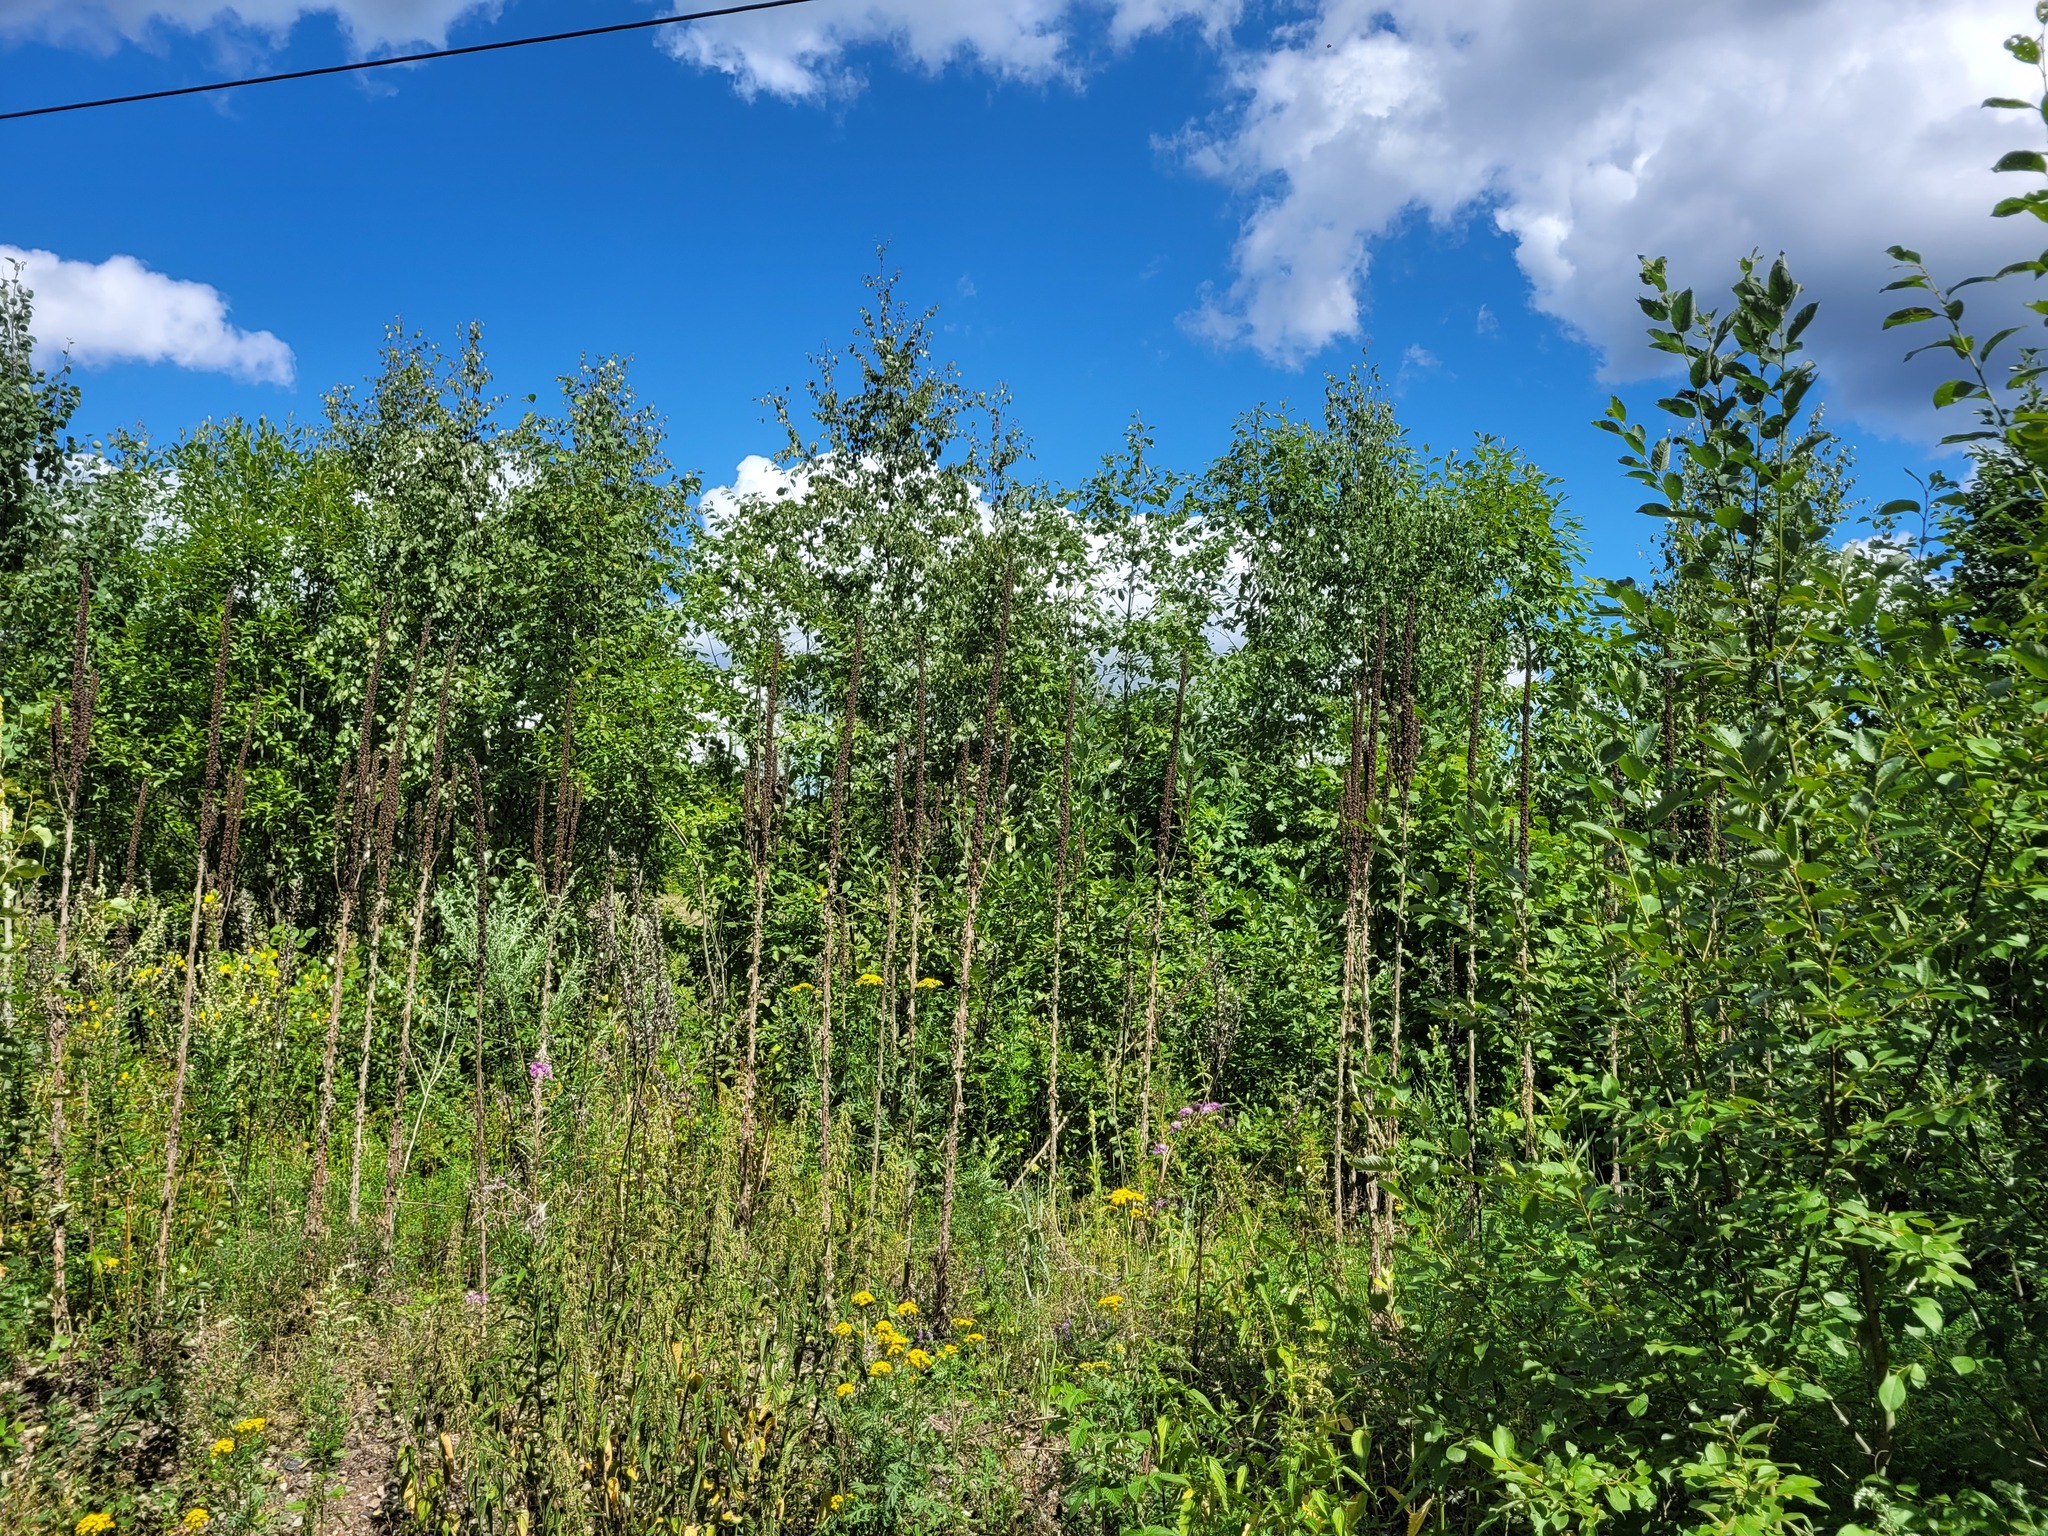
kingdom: Plantae
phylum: Tracheophyta
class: Magnoliopsida
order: Lamiales
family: Scrophulariaceae
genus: Verbascum
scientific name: Verbascum thapsus
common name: Common mullein
